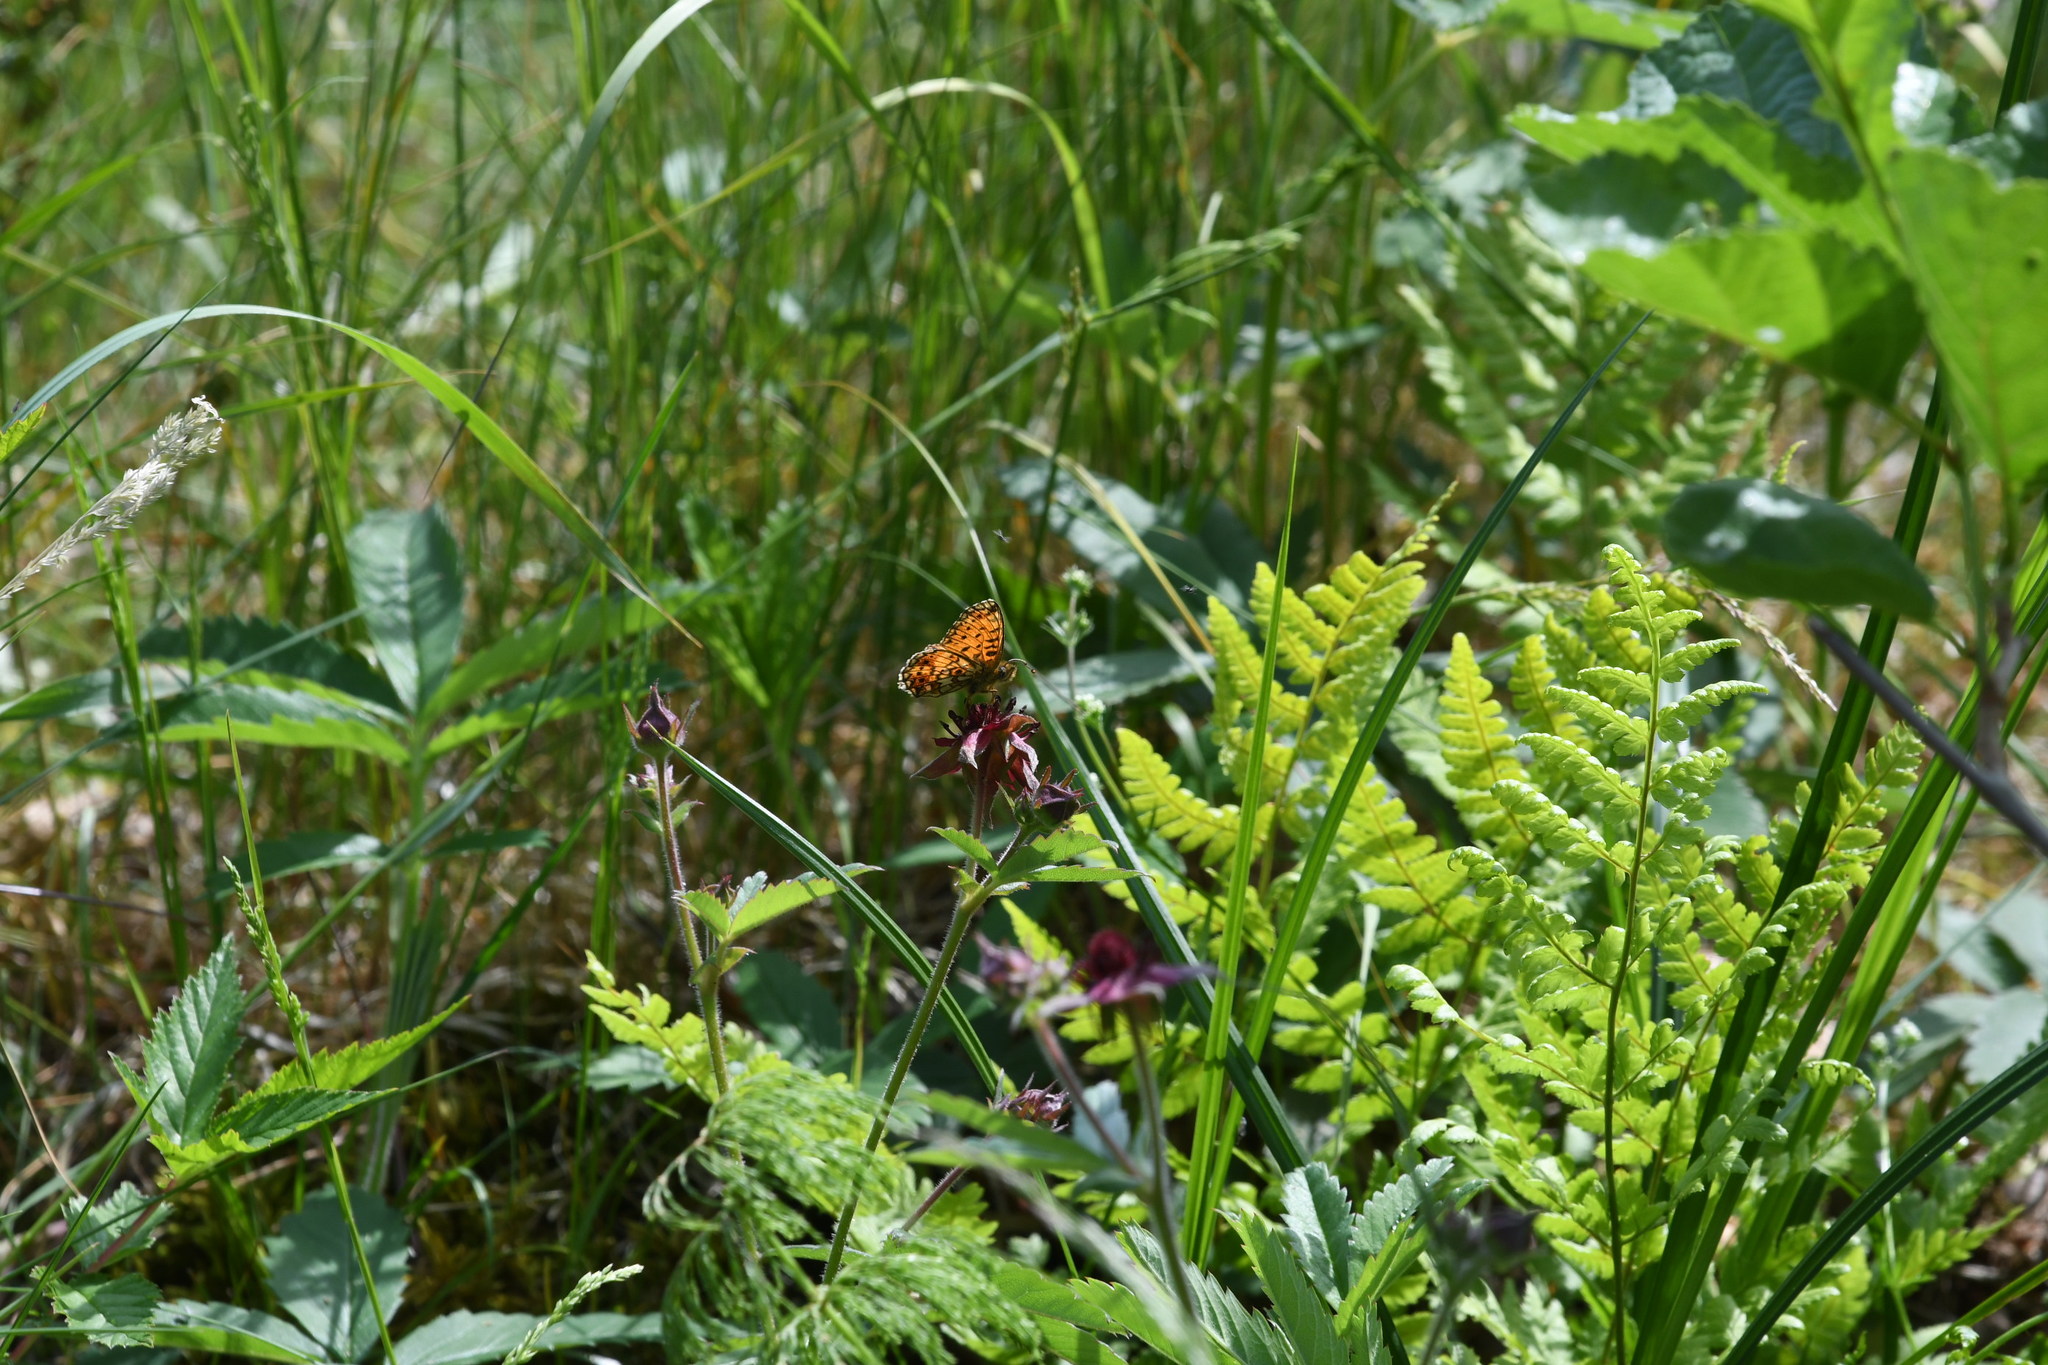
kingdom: Animalia
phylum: Arthropoda
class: Insecta
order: Lepidoptera
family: Nymphalidae
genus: Boloria
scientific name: Boloria selene
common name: Small pearl-bordered fritillary
